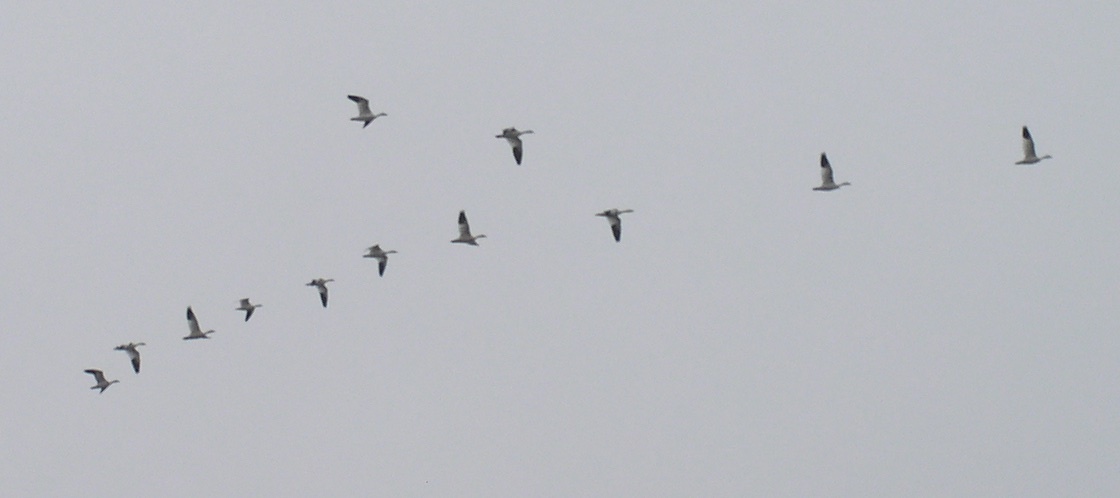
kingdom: Animalia
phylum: Chordata
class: Aves
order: Anseriformes
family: Anatidae
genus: Anser
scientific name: Anser caerulescens
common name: Snow goose
